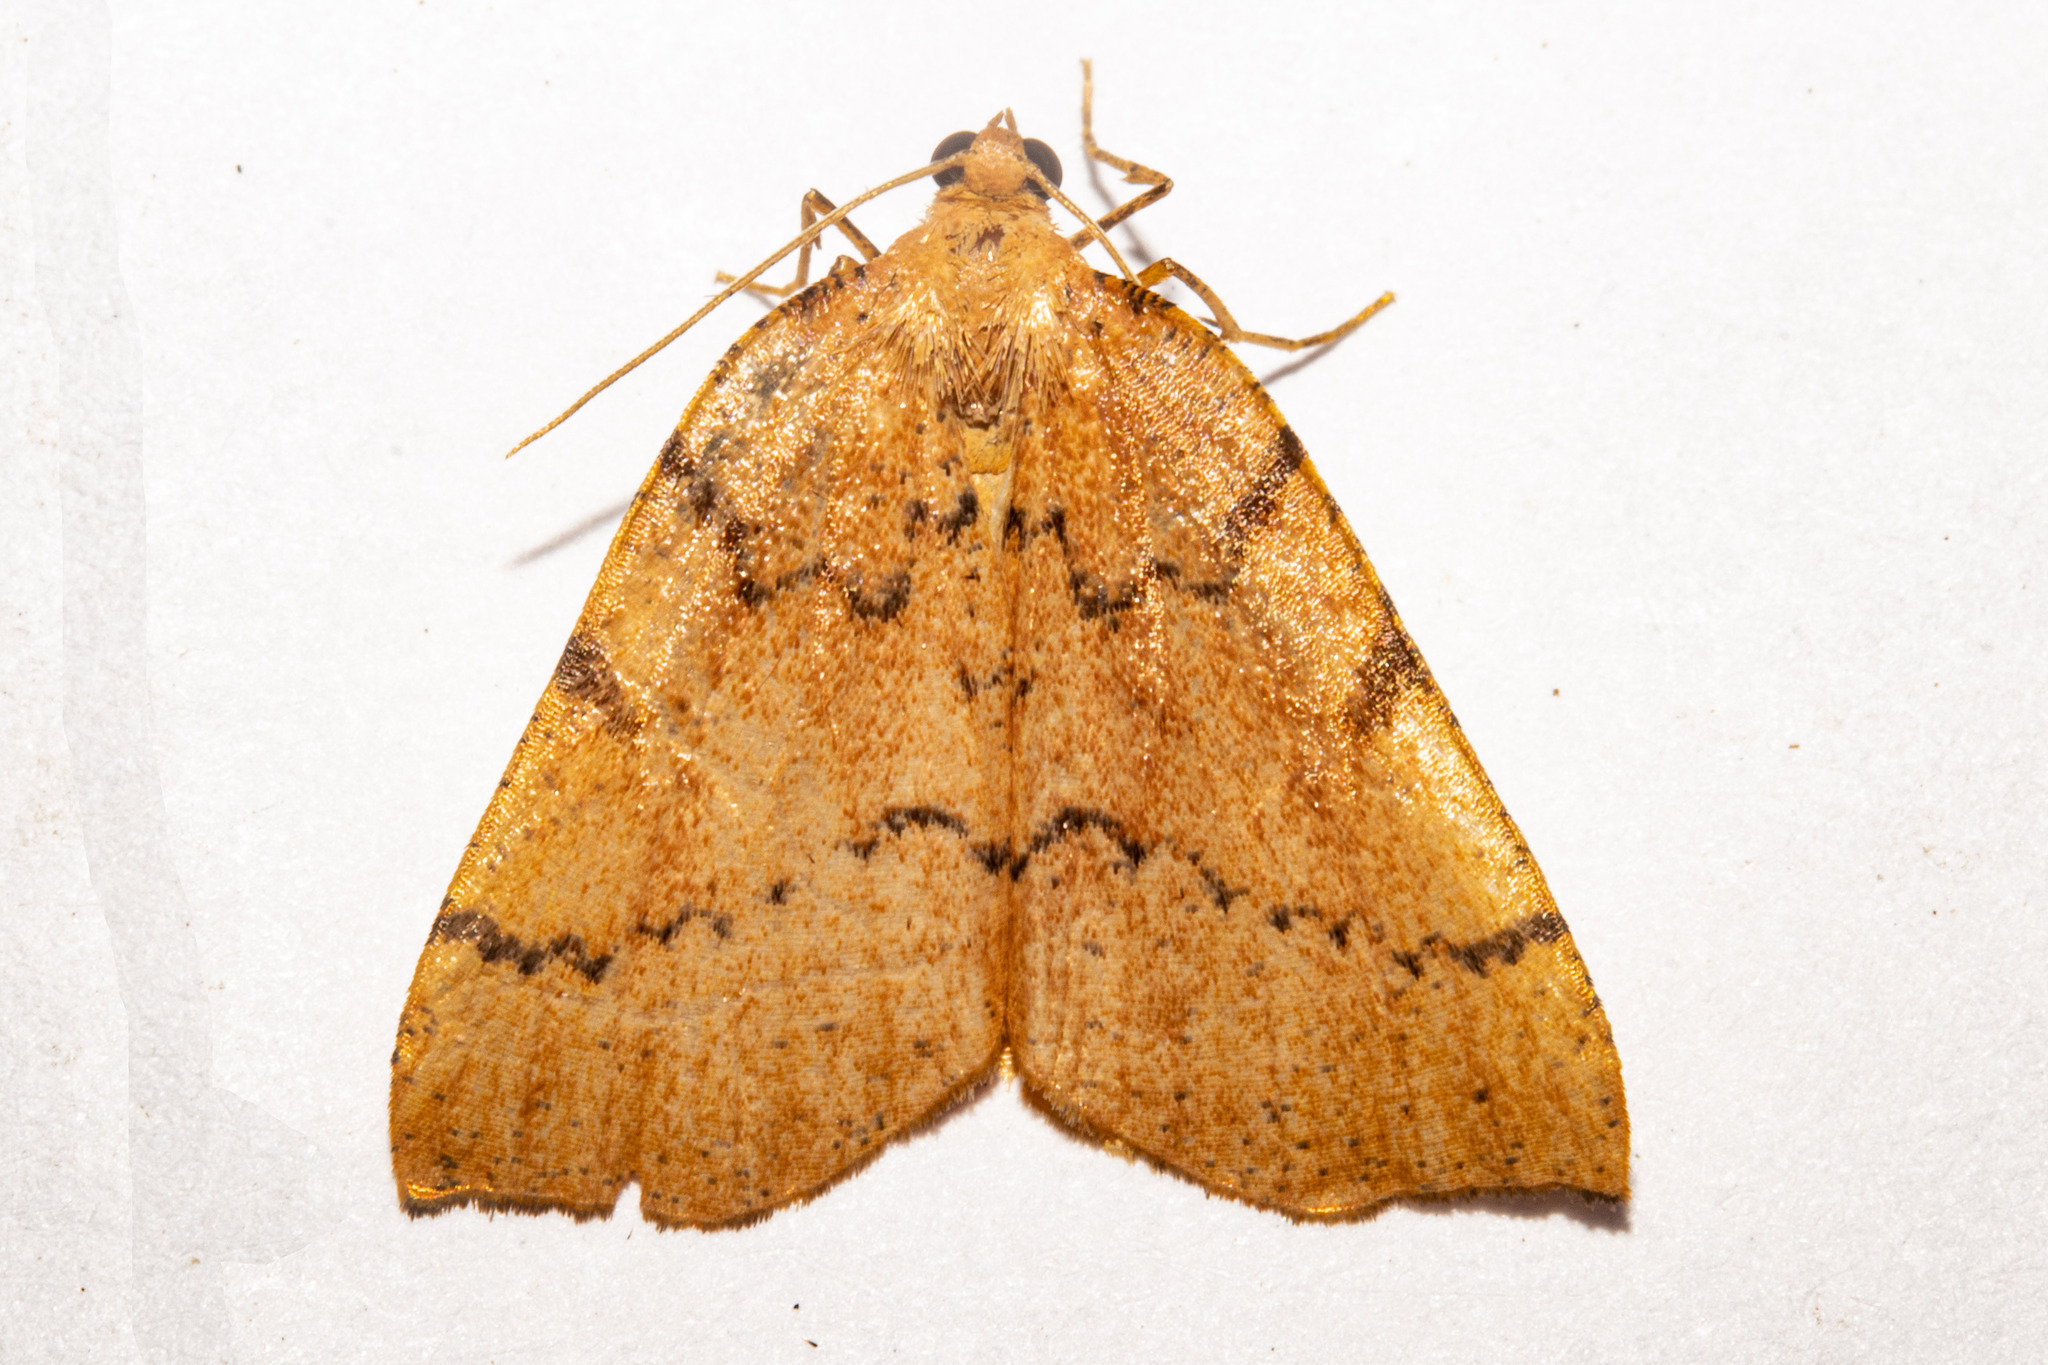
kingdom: Animalia
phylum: Arthropoda
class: Insecta
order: Lepidoptera
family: Geometridae
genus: Sestra
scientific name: Sestra humeraria
